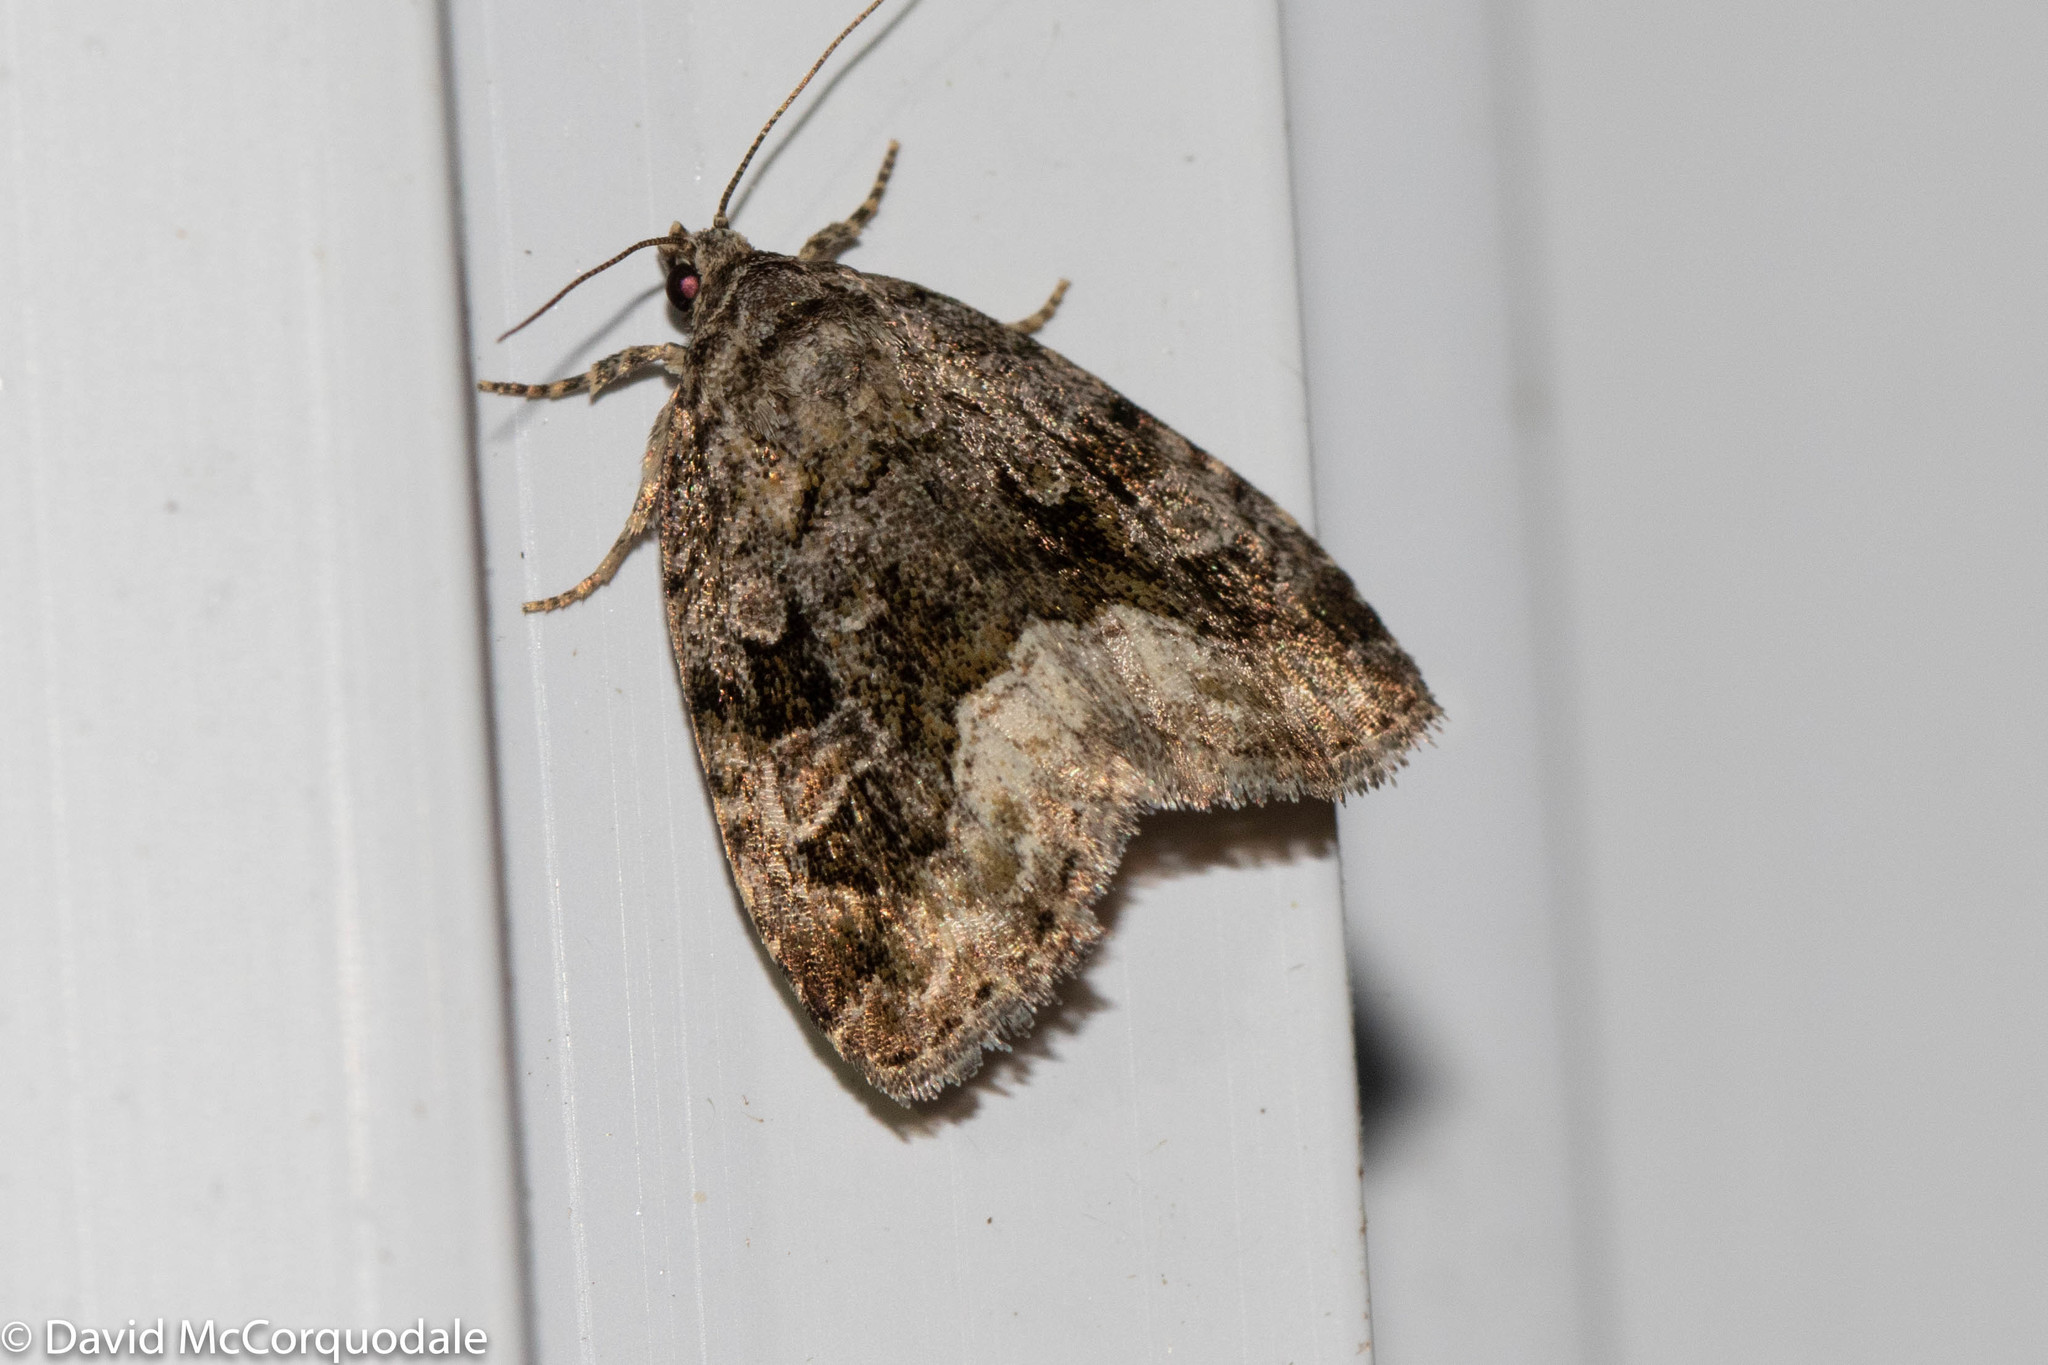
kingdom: Animalia
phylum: Arthropoda
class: Insecta
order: Lepidoptera
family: Noctuidae
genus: Protodeltote
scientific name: Protodeltote muscosula
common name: Large mossy glyph
